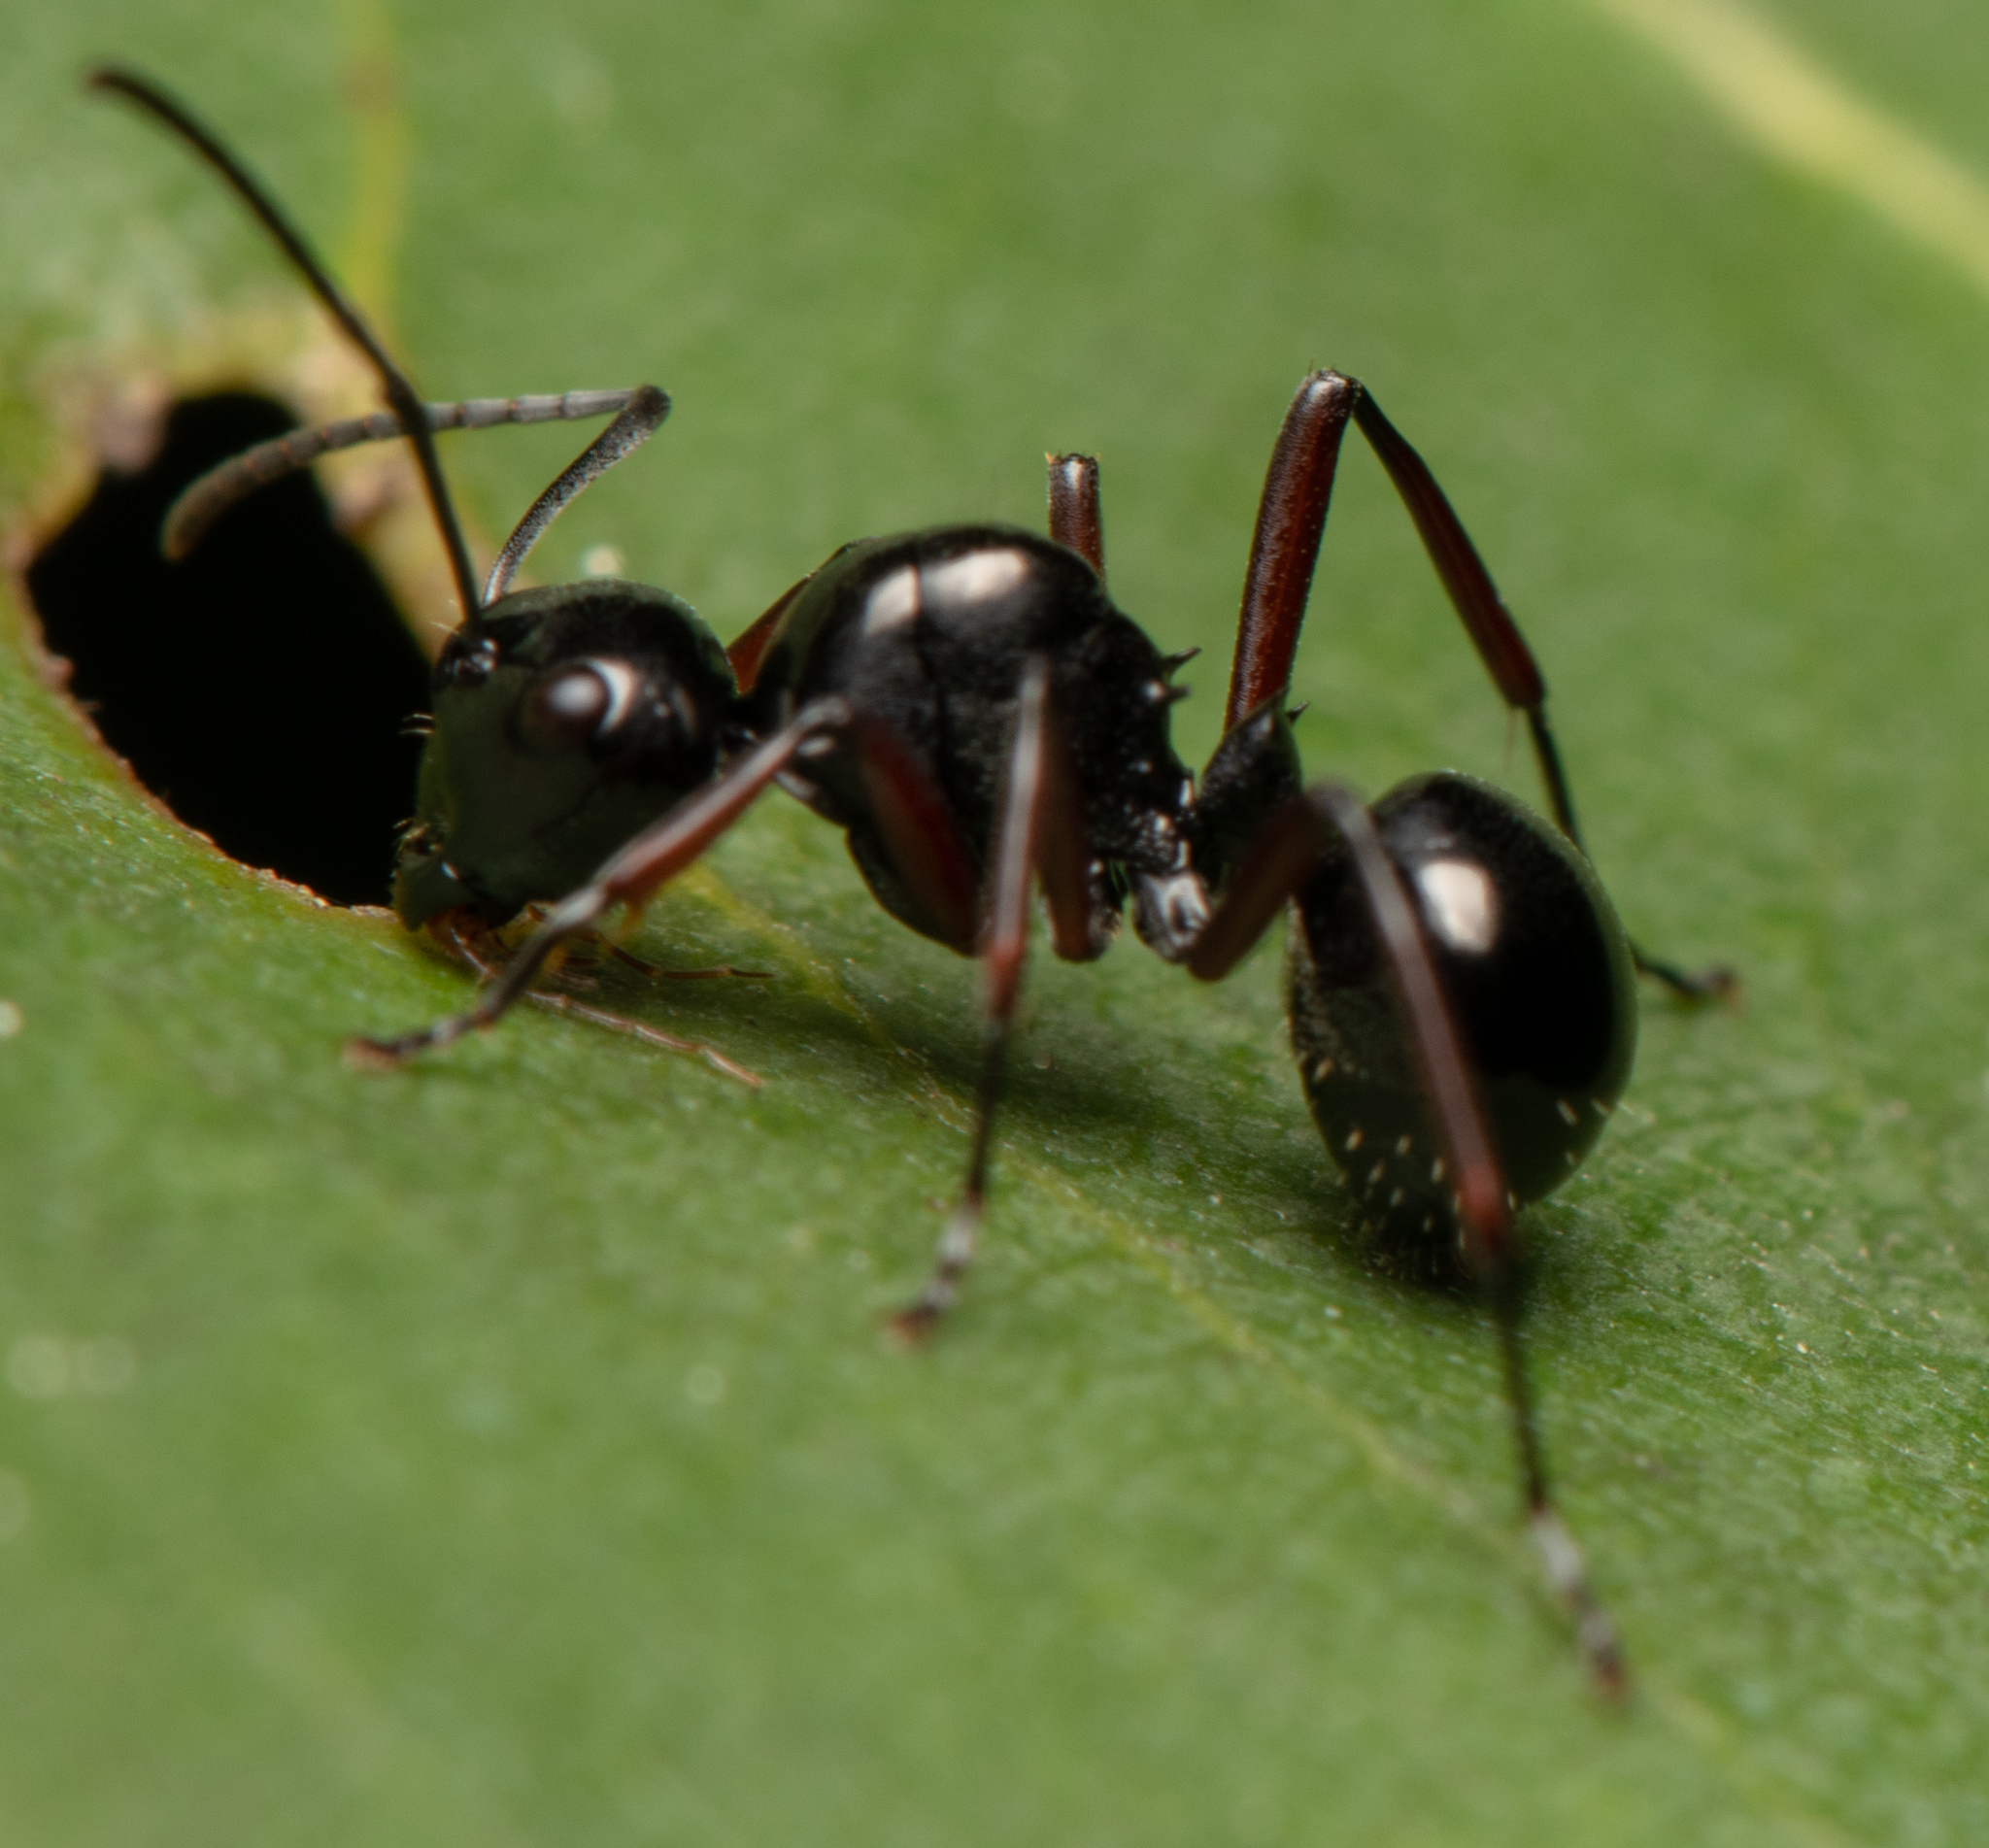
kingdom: Animalia
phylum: Arthropoda
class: Insecta
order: Hymenoptera
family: Formicidae
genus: Polyrhachis
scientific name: Polyrhachis australis
